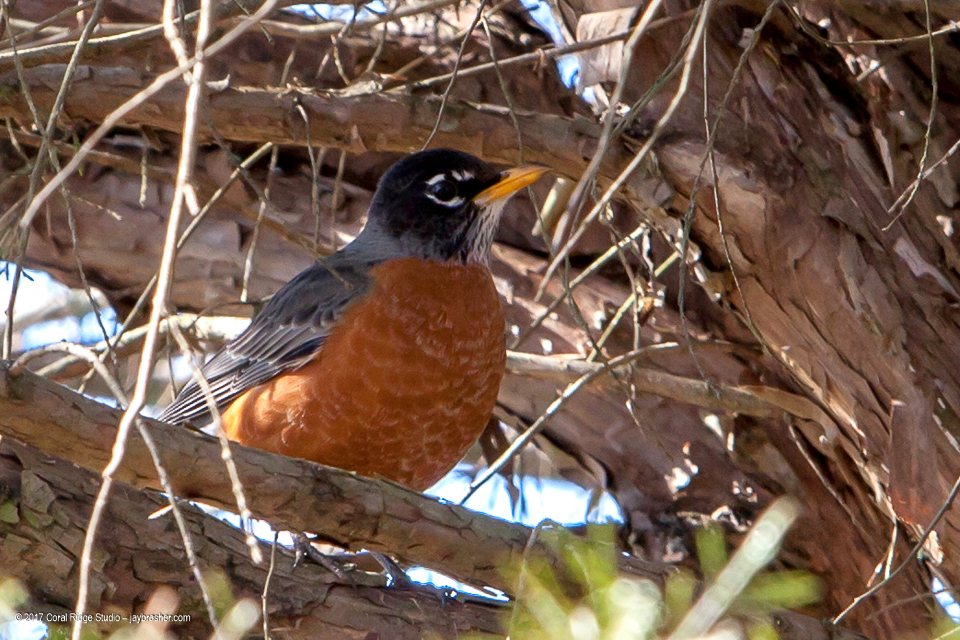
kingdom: Animalia
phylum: Chordata
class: Aves
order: Passeriformes
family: Turdidae
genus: Turdus
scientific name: Turdus migratorius
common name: American robin
